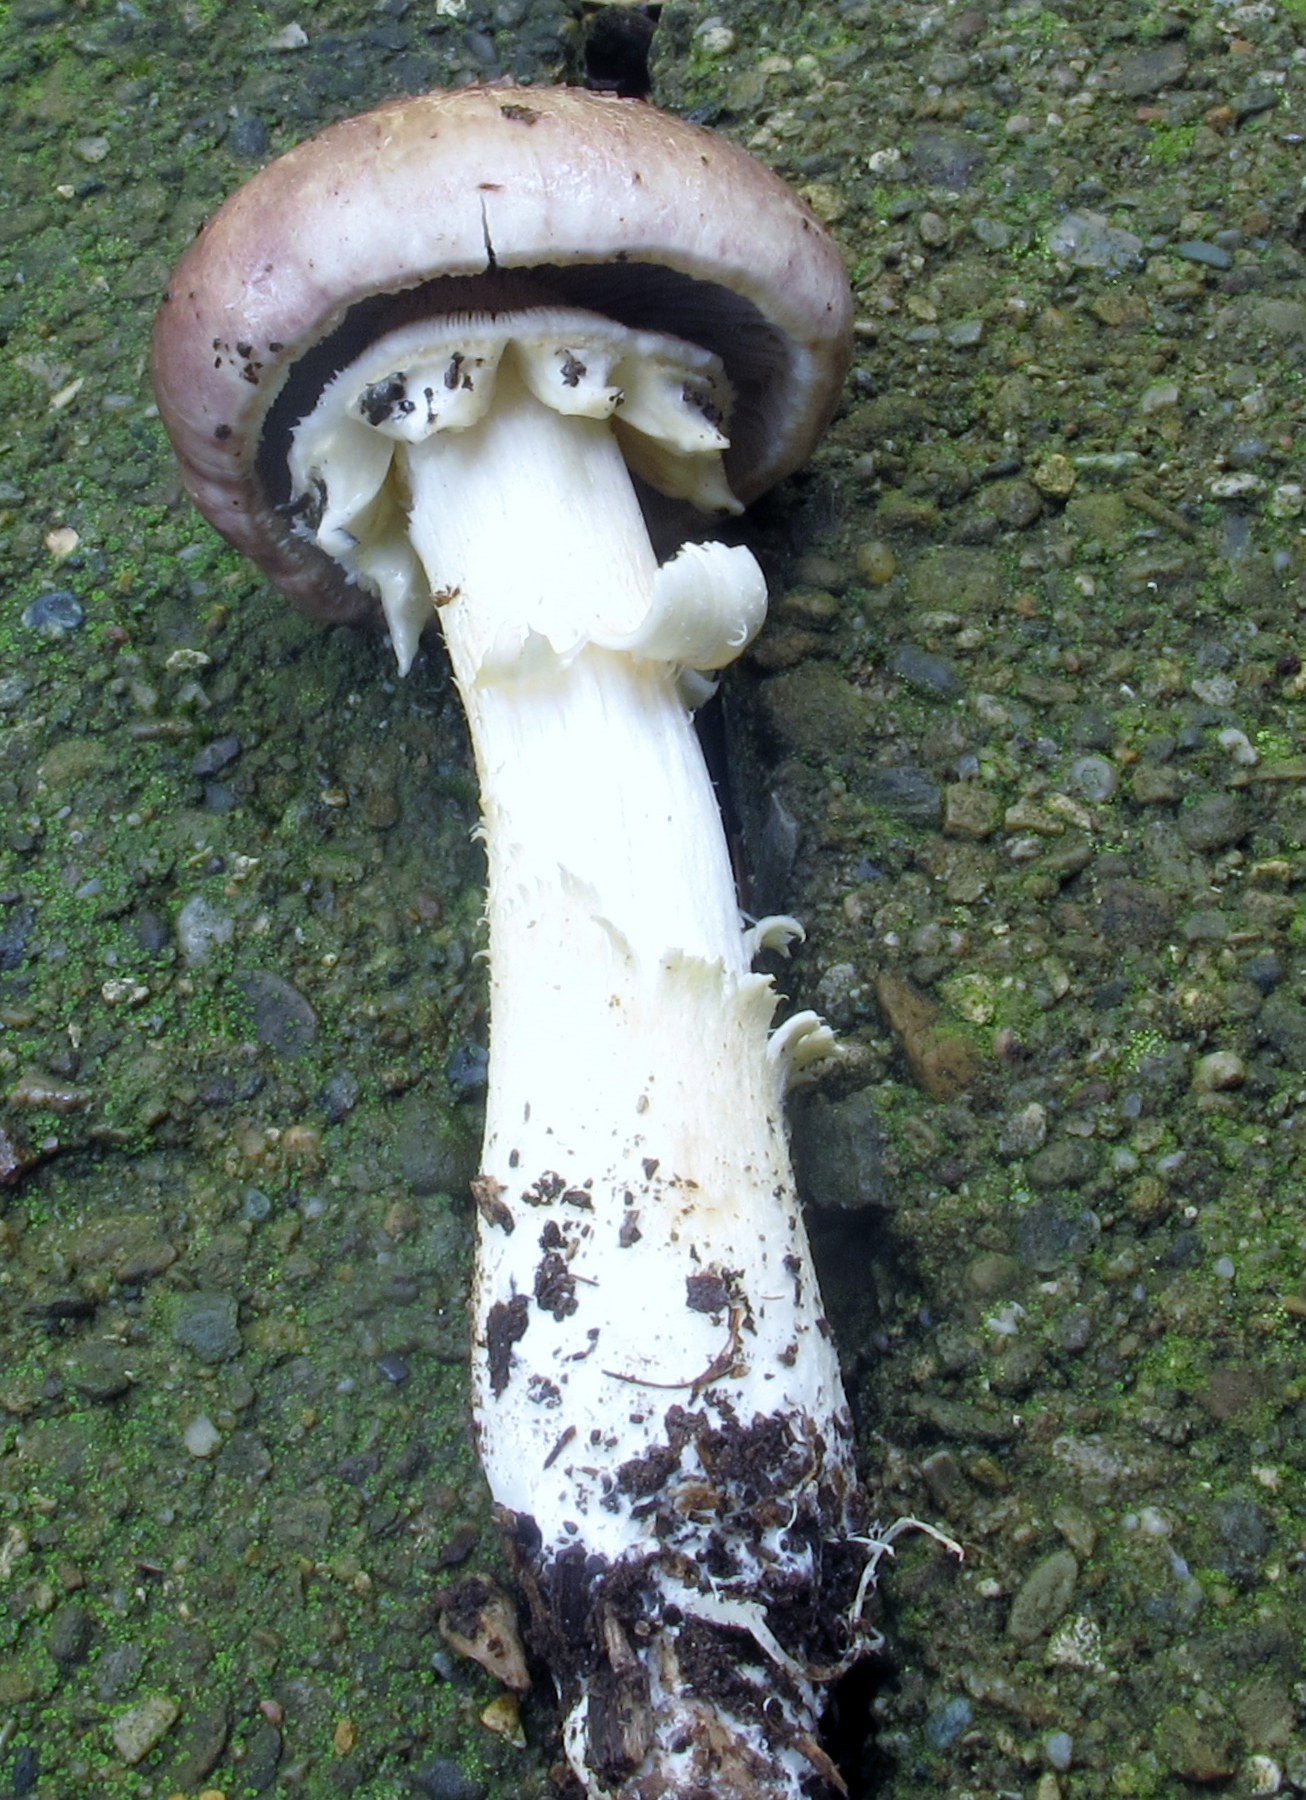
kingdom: Fungi
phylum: Basidiomycota
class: Agaricomycetes
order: Agaricales
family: Strophariaceae
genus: Stropharia
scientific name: Stropharia rugosoannulata
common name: Wine roundhead
